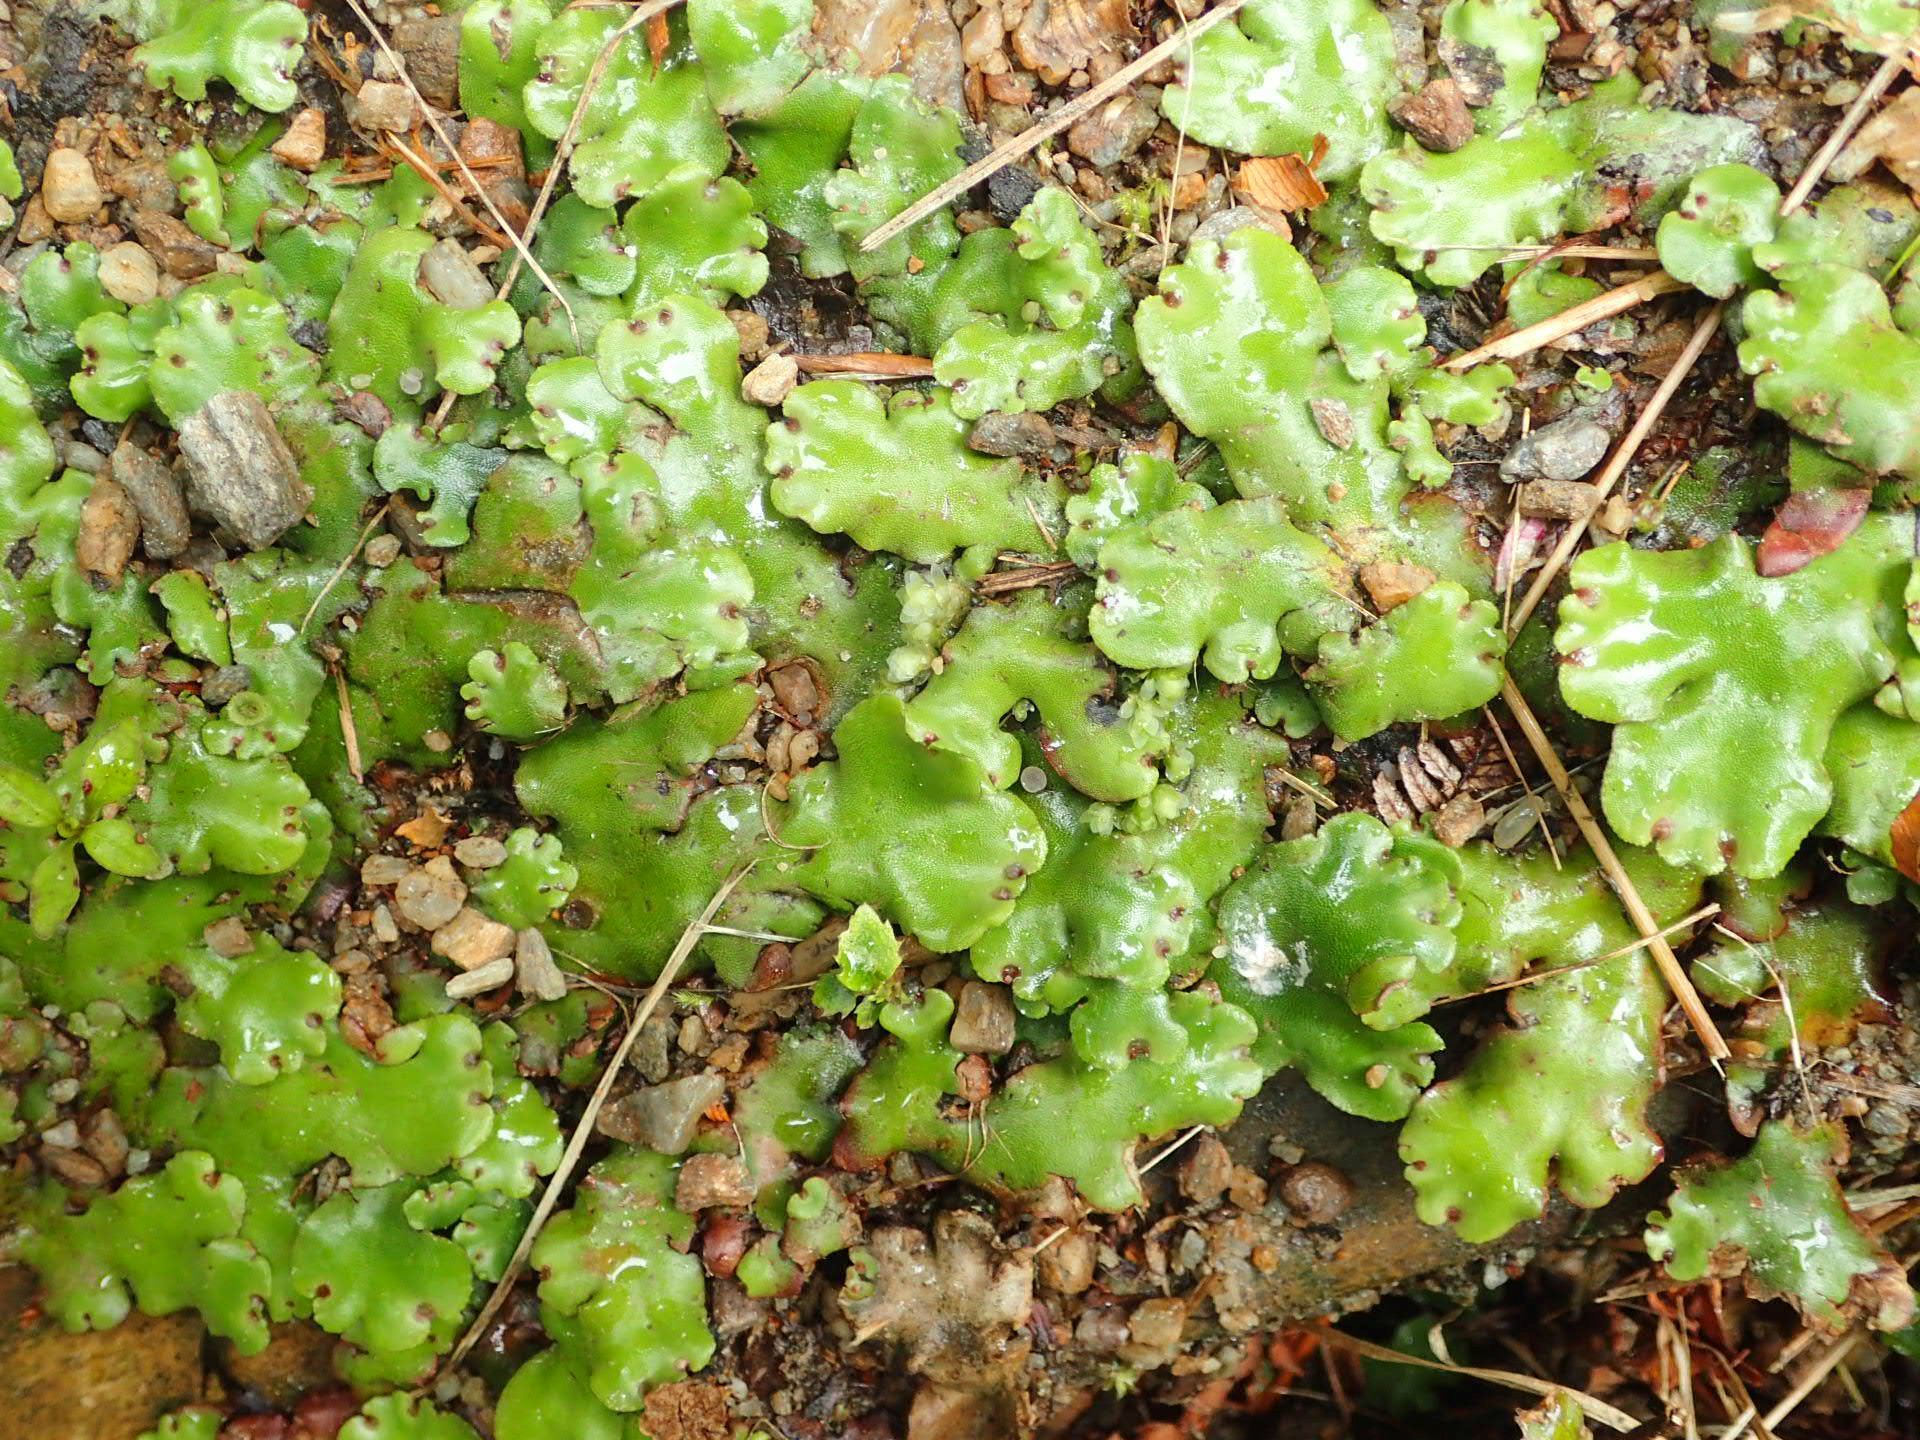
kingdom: Plantae
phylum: Marchantiophyta
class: Marchantiopsida
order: Marchantiales
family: Marchantiaceae
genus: Marchantia
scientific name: Marchantia foliacea
